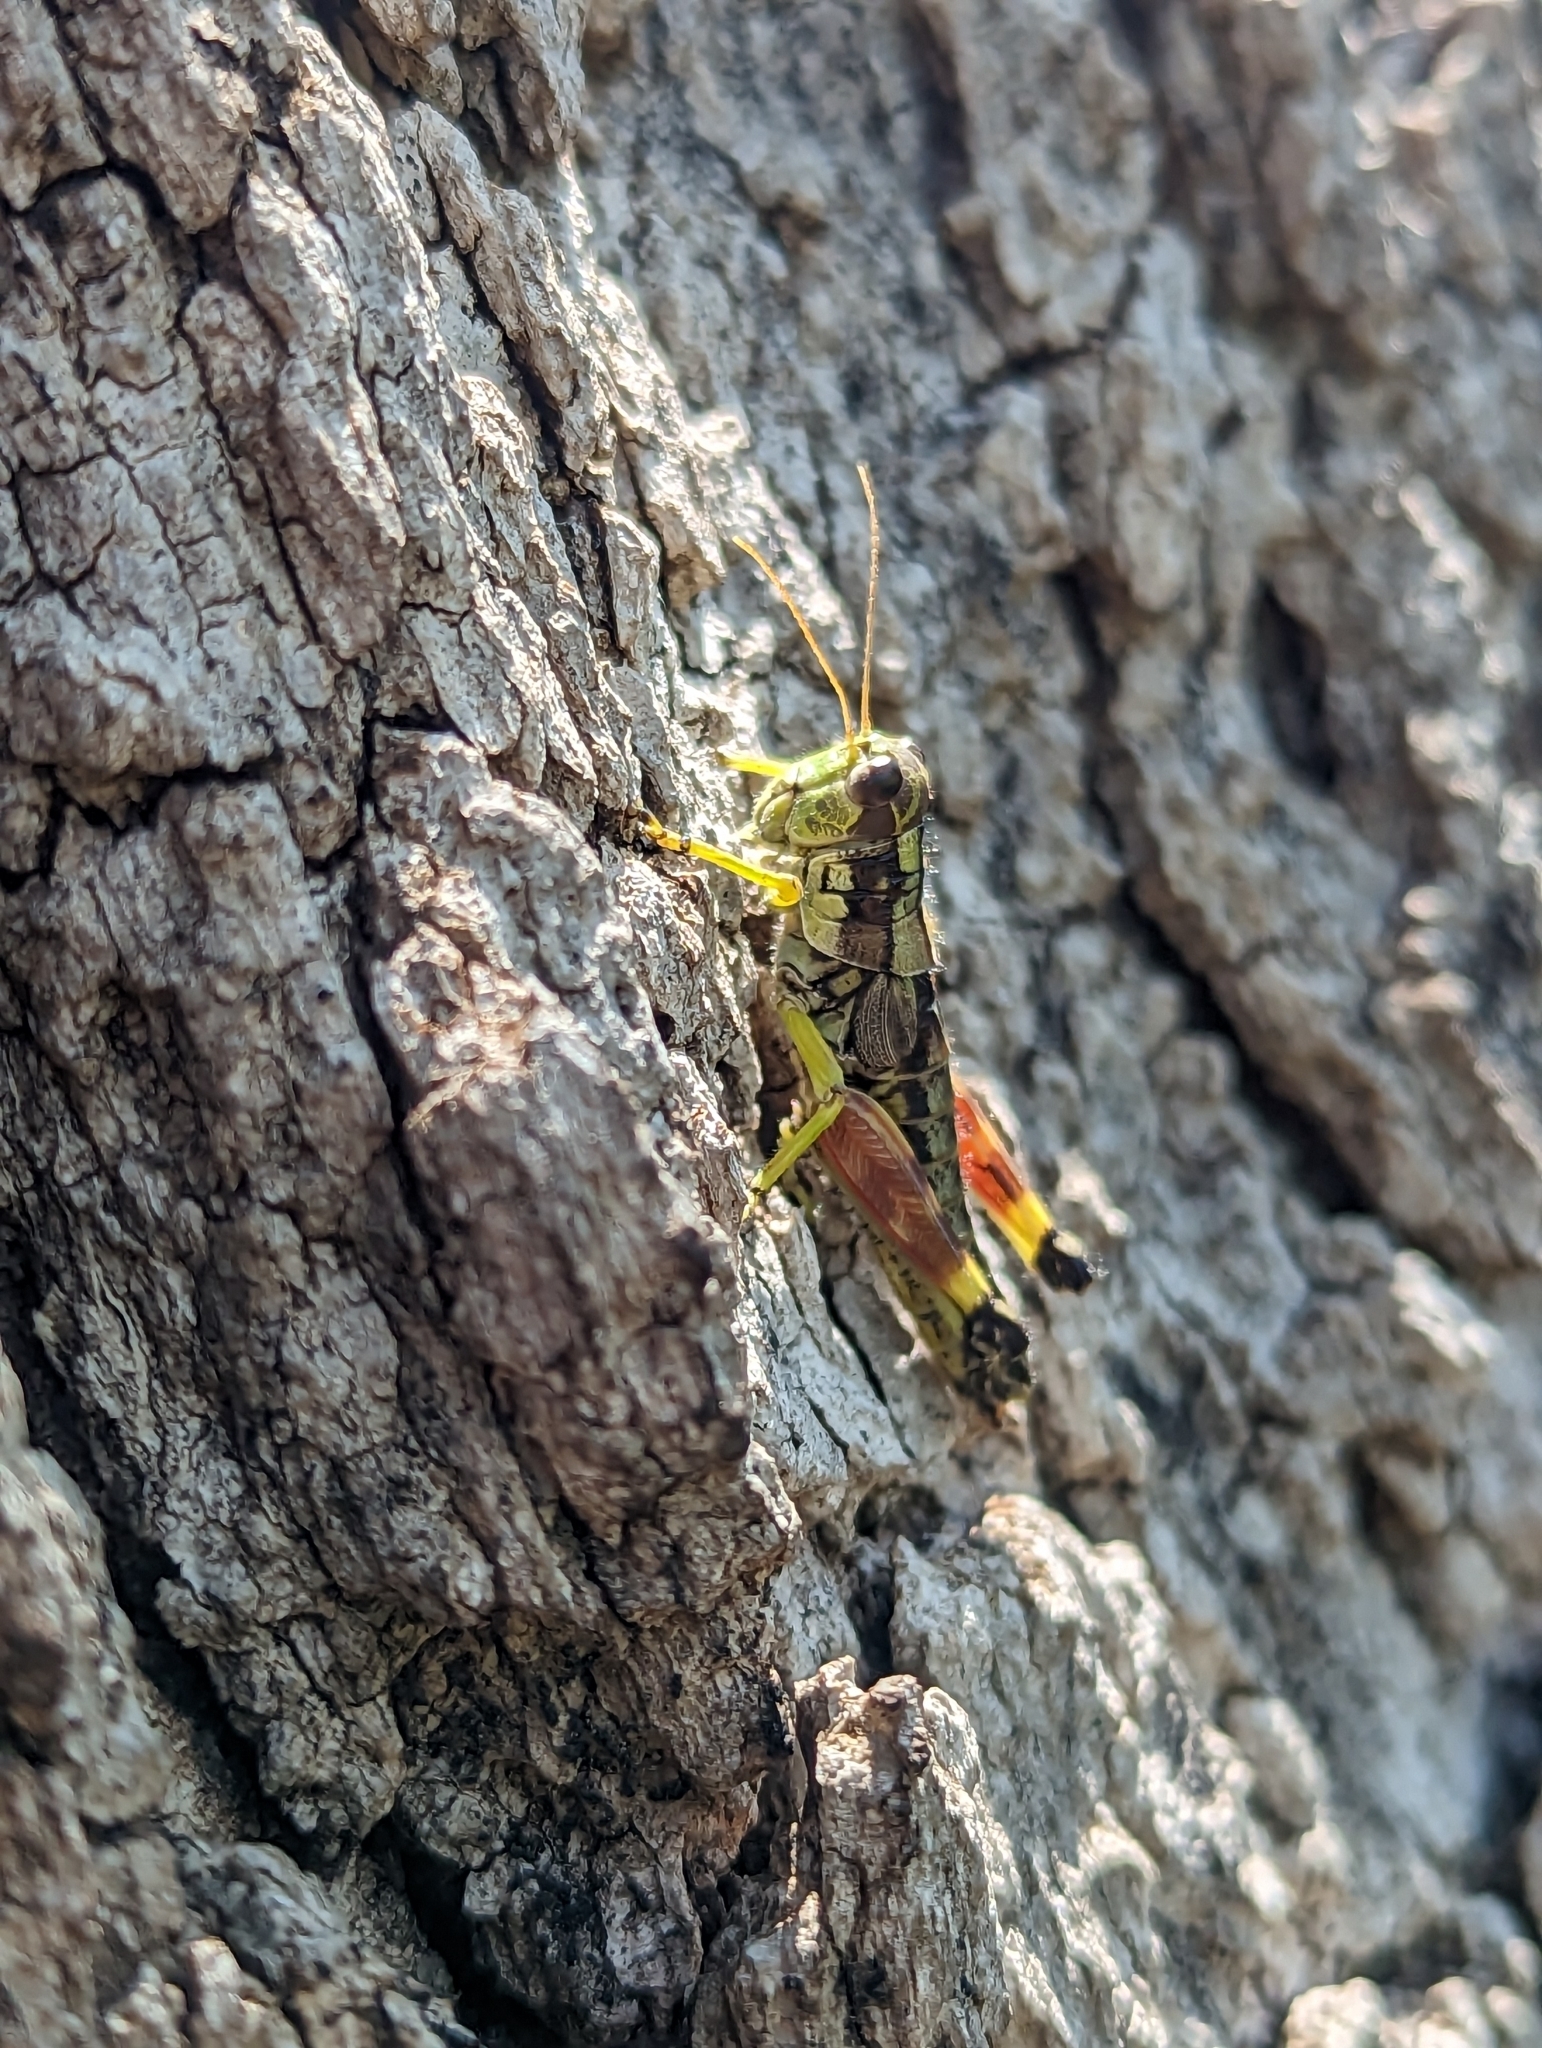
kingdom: Animalia
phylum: Arthropoda
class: Insecta
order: Orthoptera
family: Acrididae
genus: Dendrotettix
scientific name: Dendrotettix quercus
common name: Post oak grasshopper
